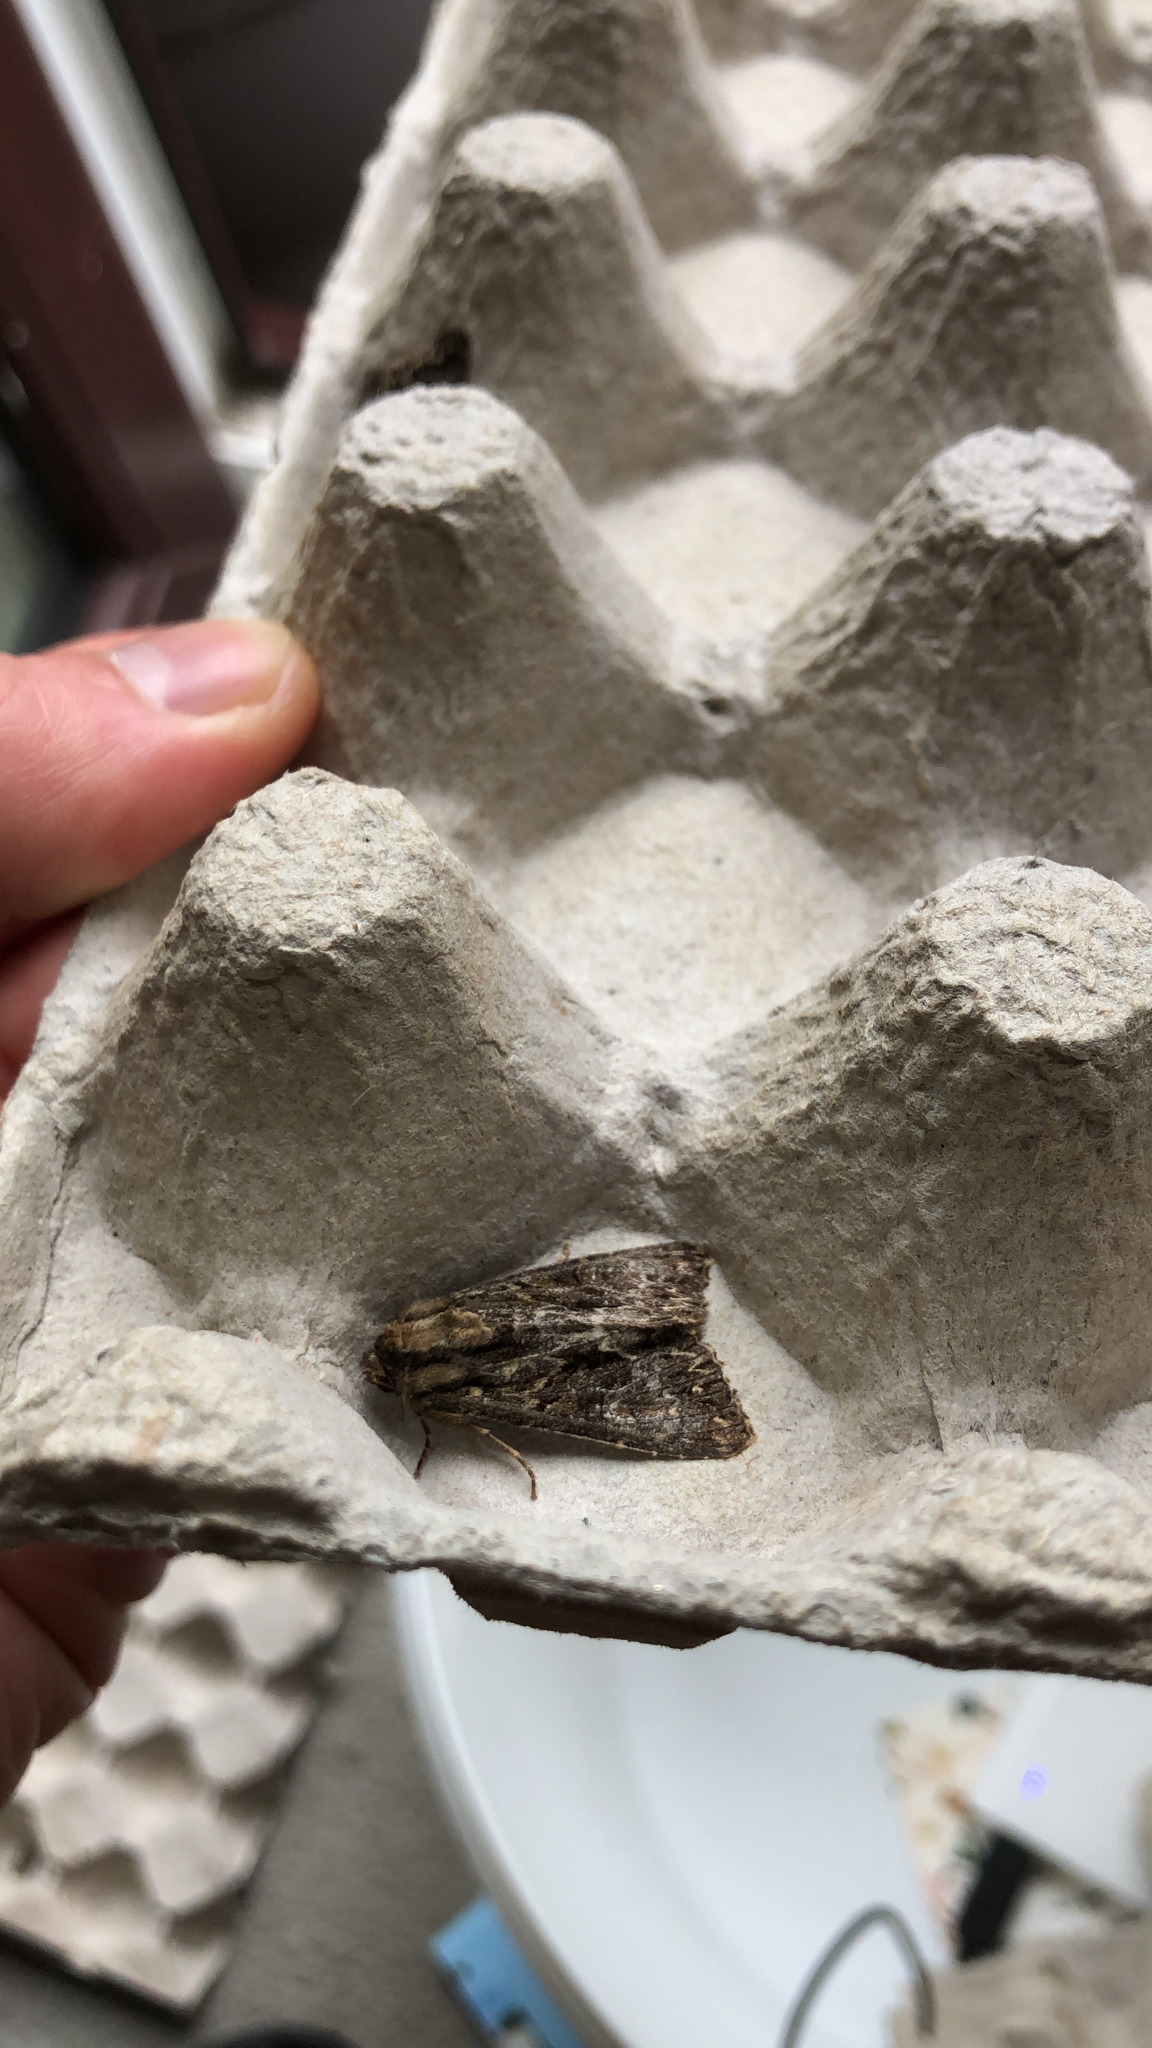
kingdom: Animalia
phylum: Arthropoda
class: Insecta
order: Lepidoptera
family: Noctuidae
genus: Apamea
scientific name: Apamea monoglypha
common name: Dark arches
